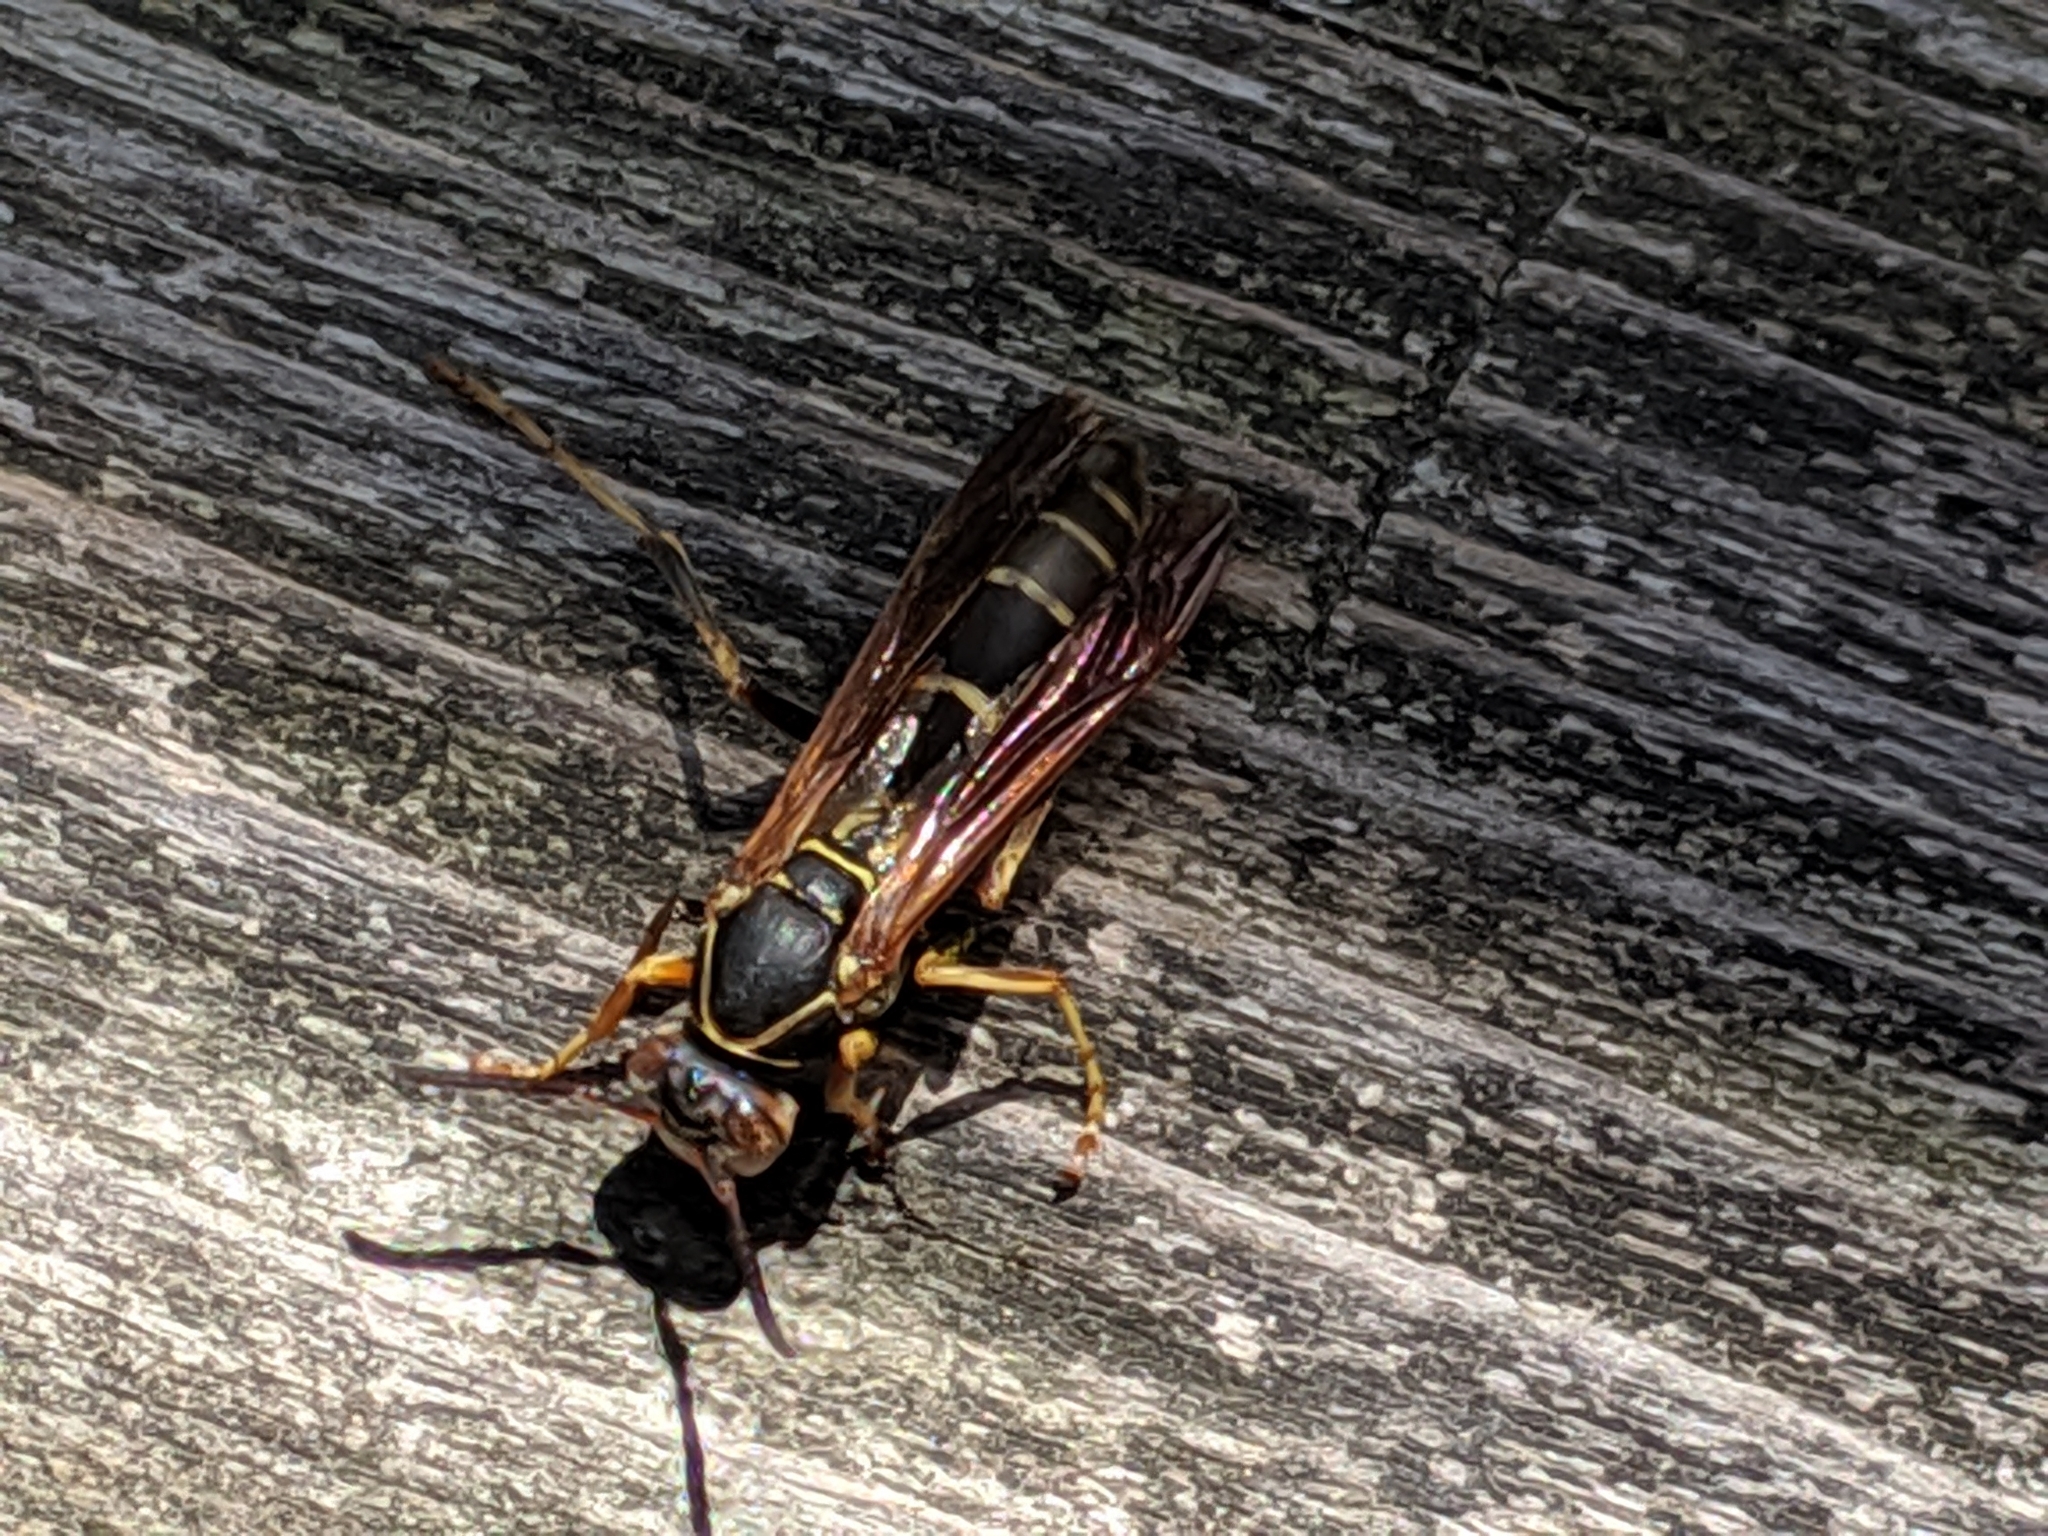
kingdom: Animalia
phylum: Arthropoda
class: Insecta
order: Hymenoptera
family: Eumenidae
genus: Polistes
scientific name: Polistes fuscatus
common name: Dark paper wasp
